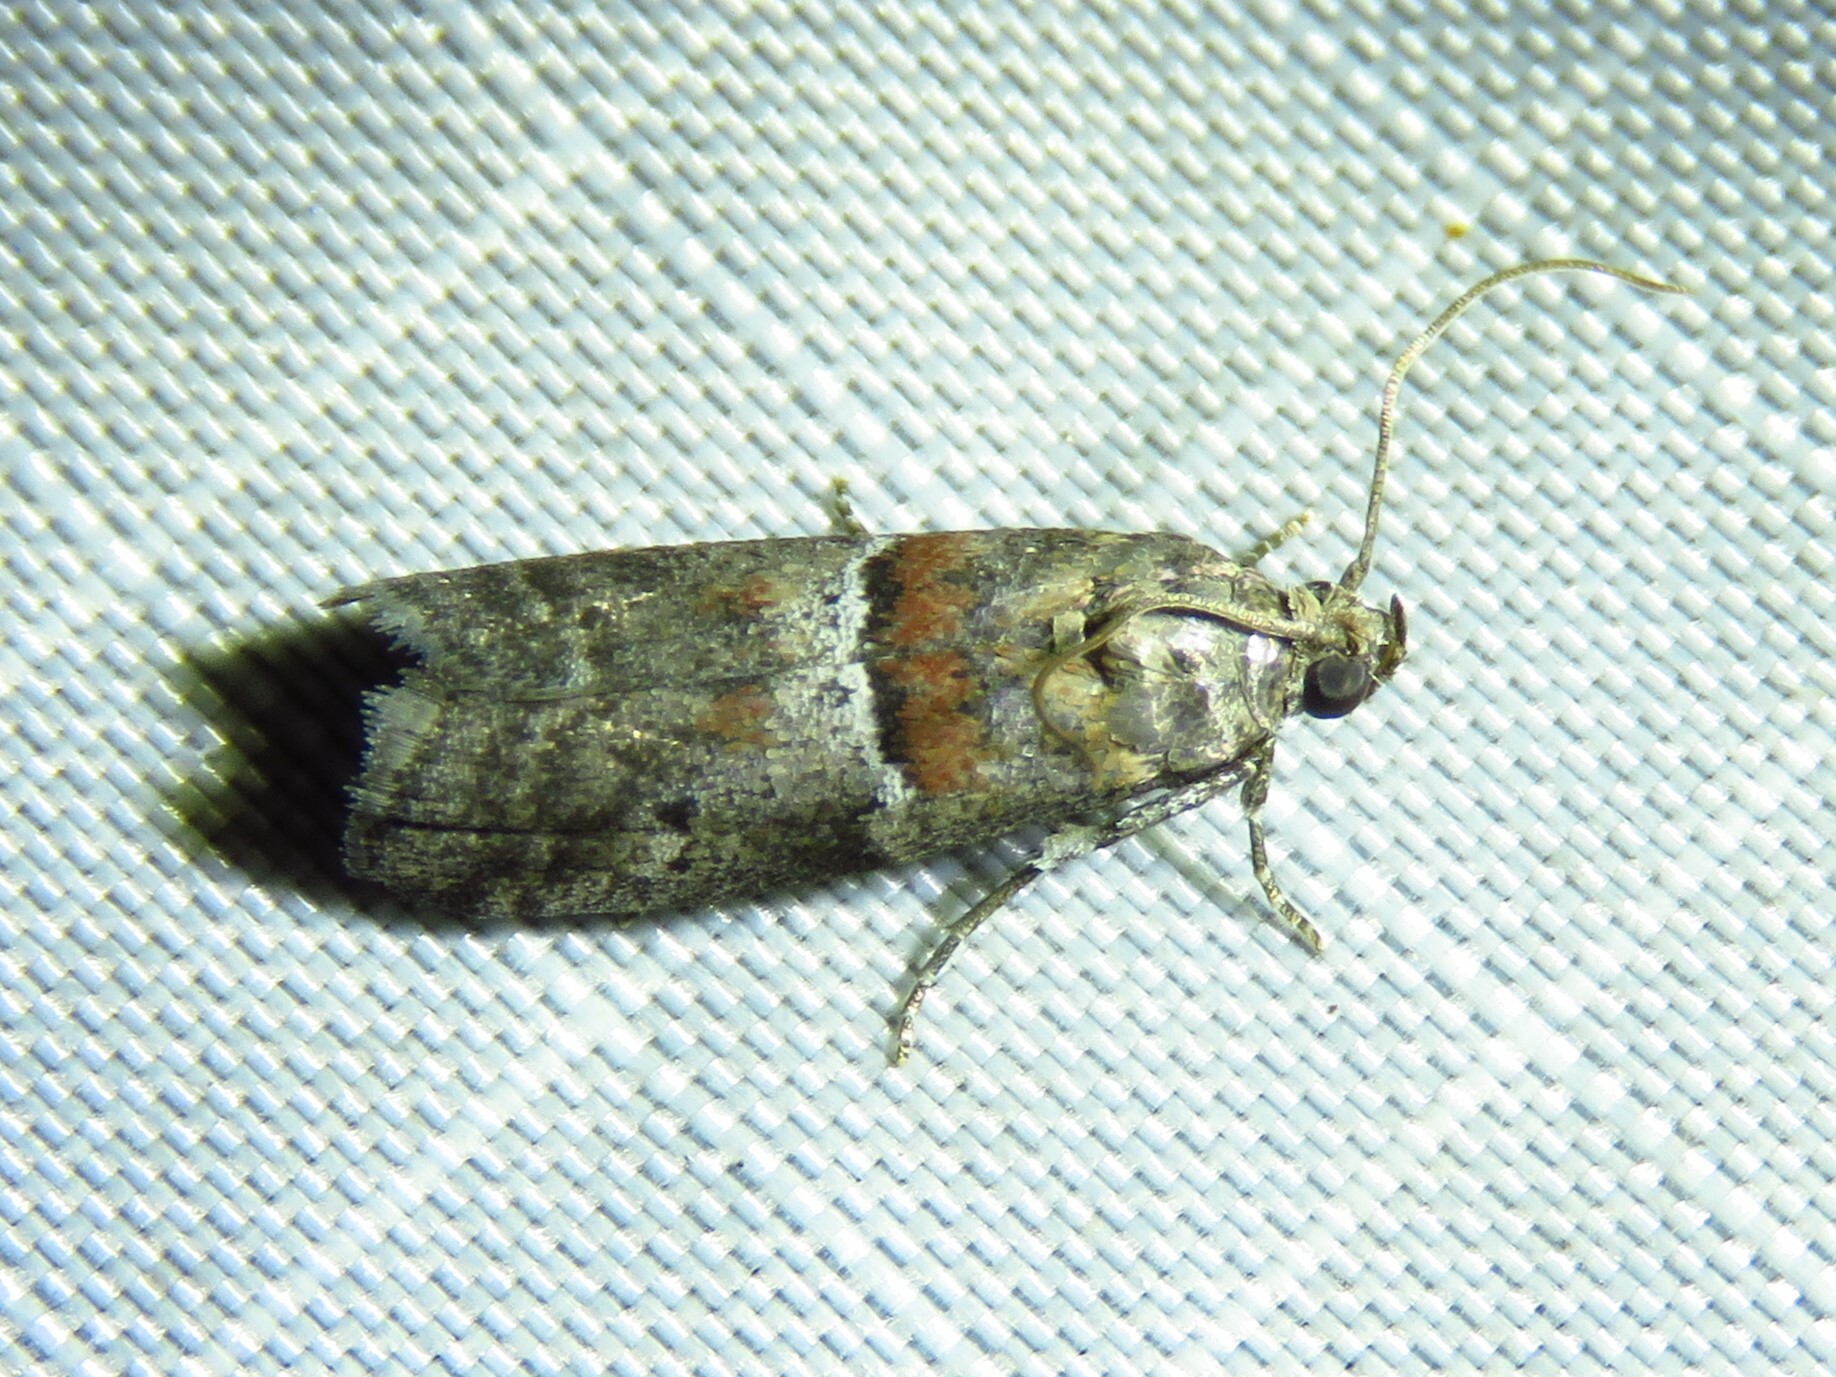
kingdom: Animalia
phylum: Arthropoda
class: Insecta
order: Lepidoptera
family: Pyralidae
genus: Salebriaria
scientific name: Salebriaria pumilella
